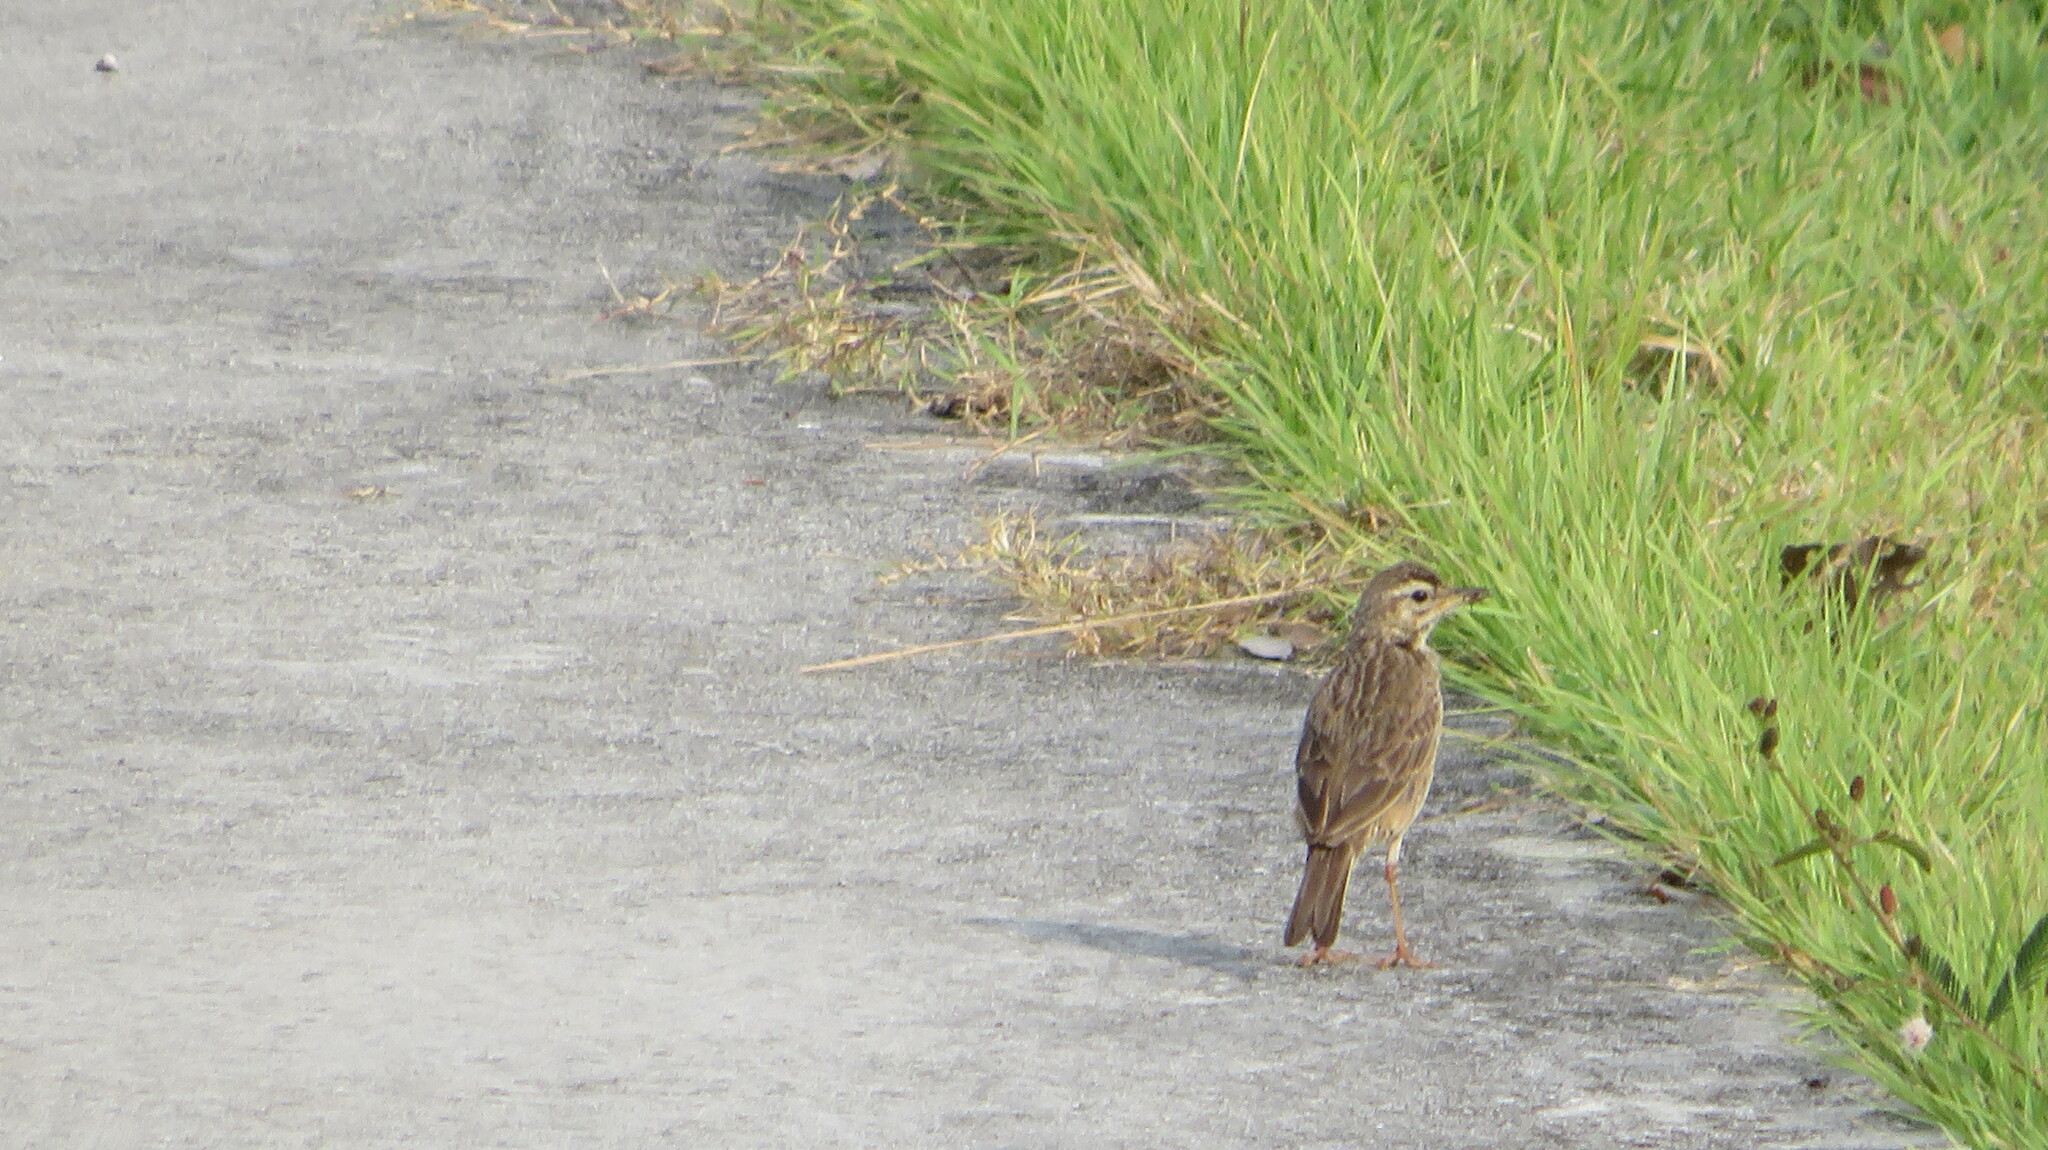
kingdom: Animalia
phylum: Chordata
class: Aves
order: Passeriformes
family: Motacillidae
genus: Anthus
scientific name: Anthus rufulus
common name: Paddyfield pipit
